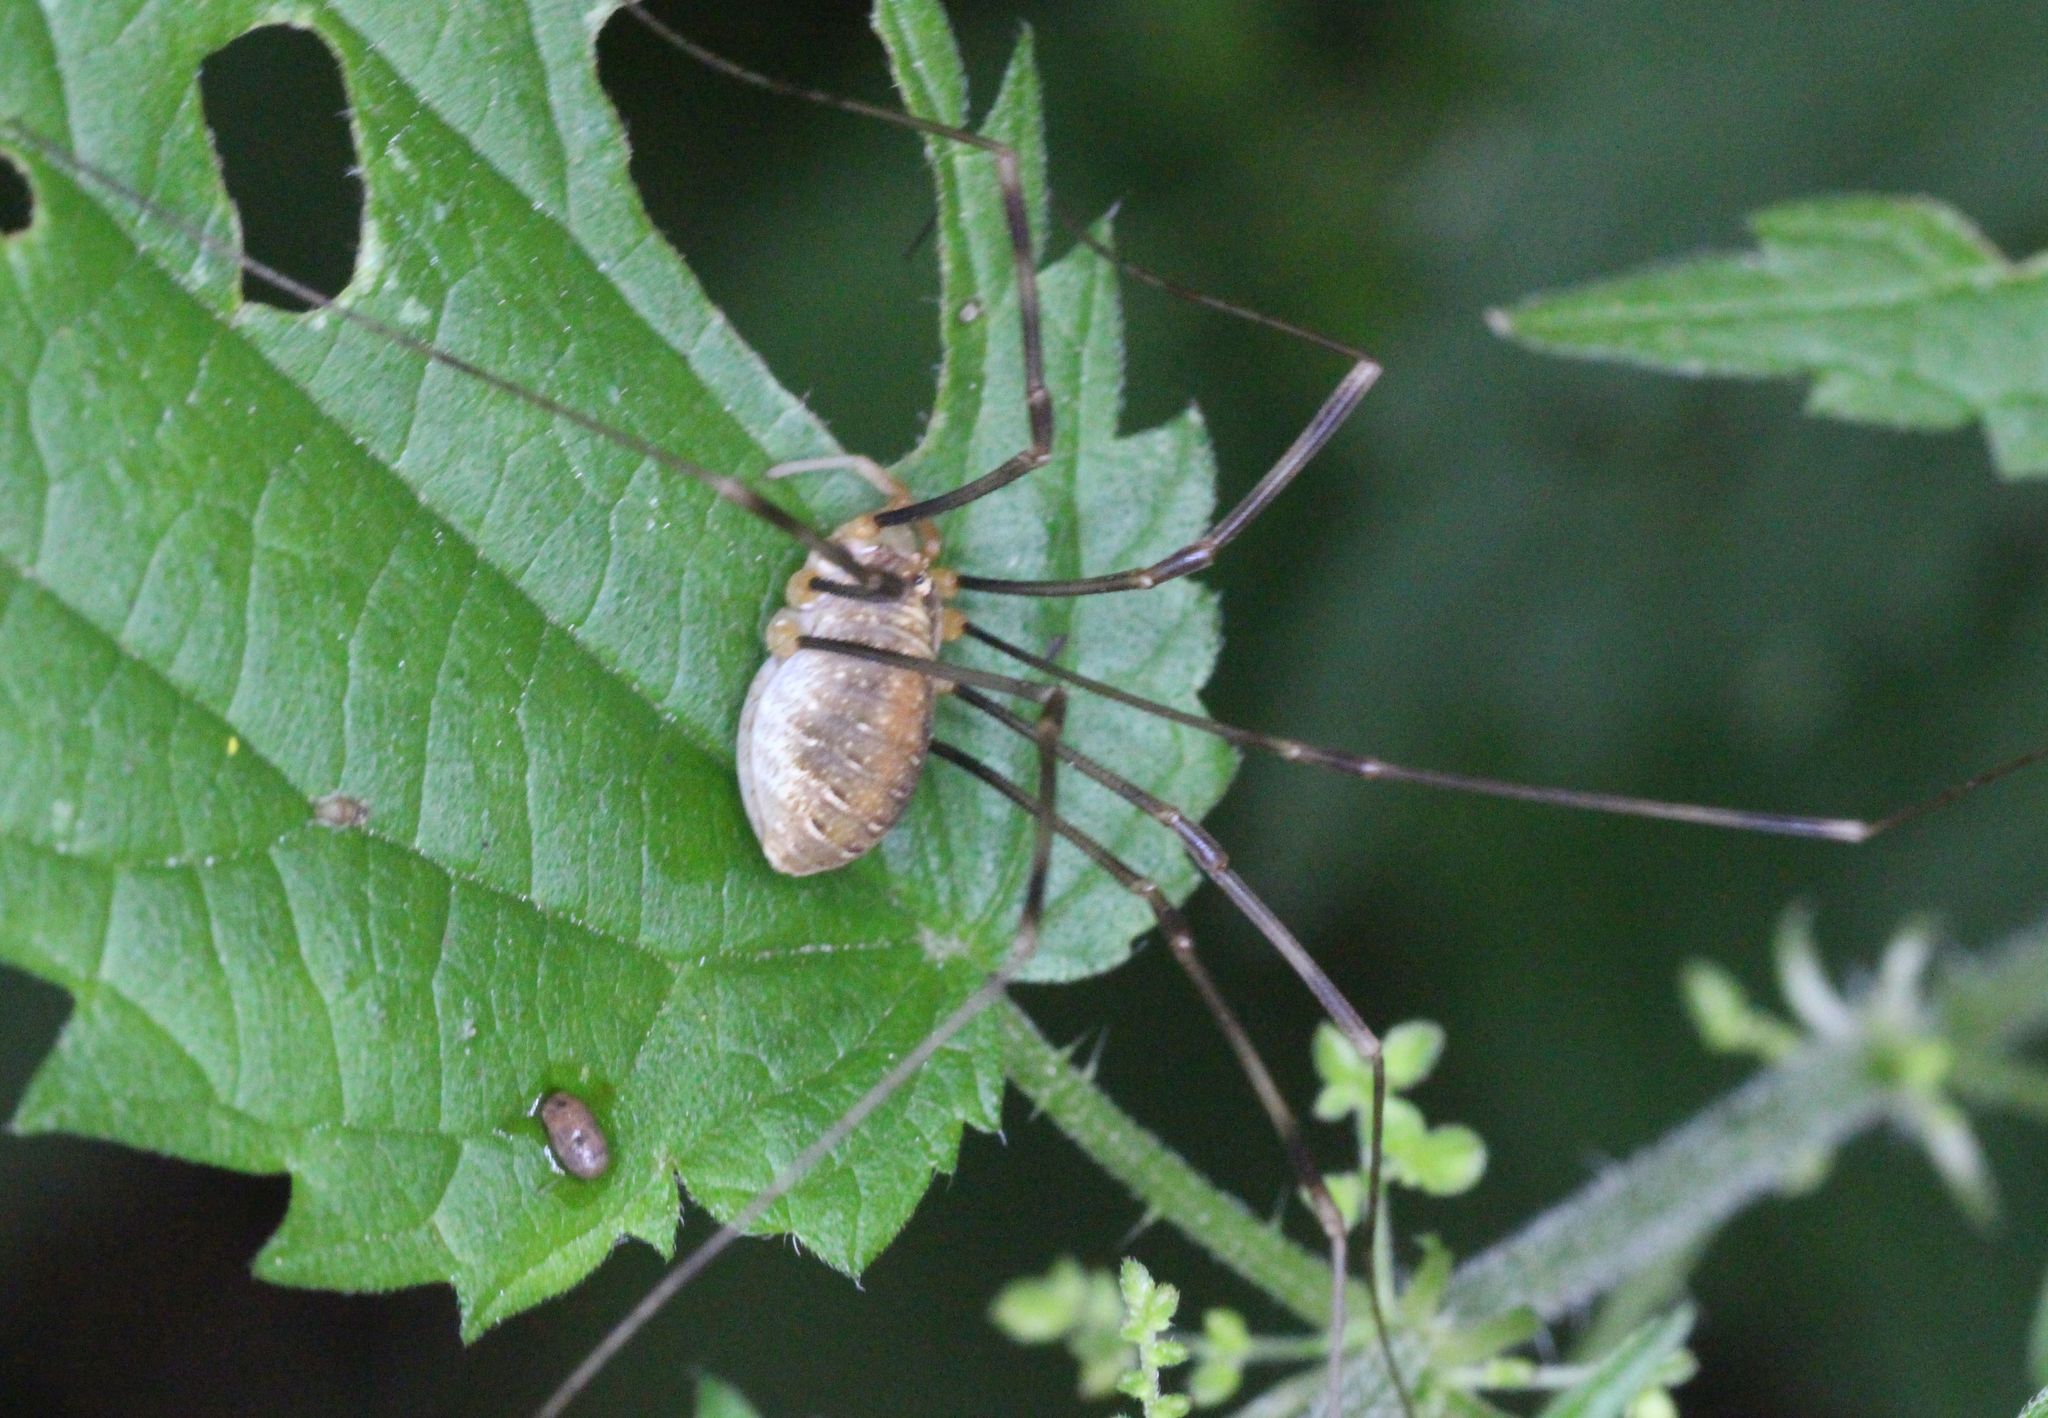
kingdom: Animalia
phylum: Arthropoda
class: Arachnida
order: Opiliones
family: Phalangiidae
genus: Opilio
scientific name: Opilio canestrinii
